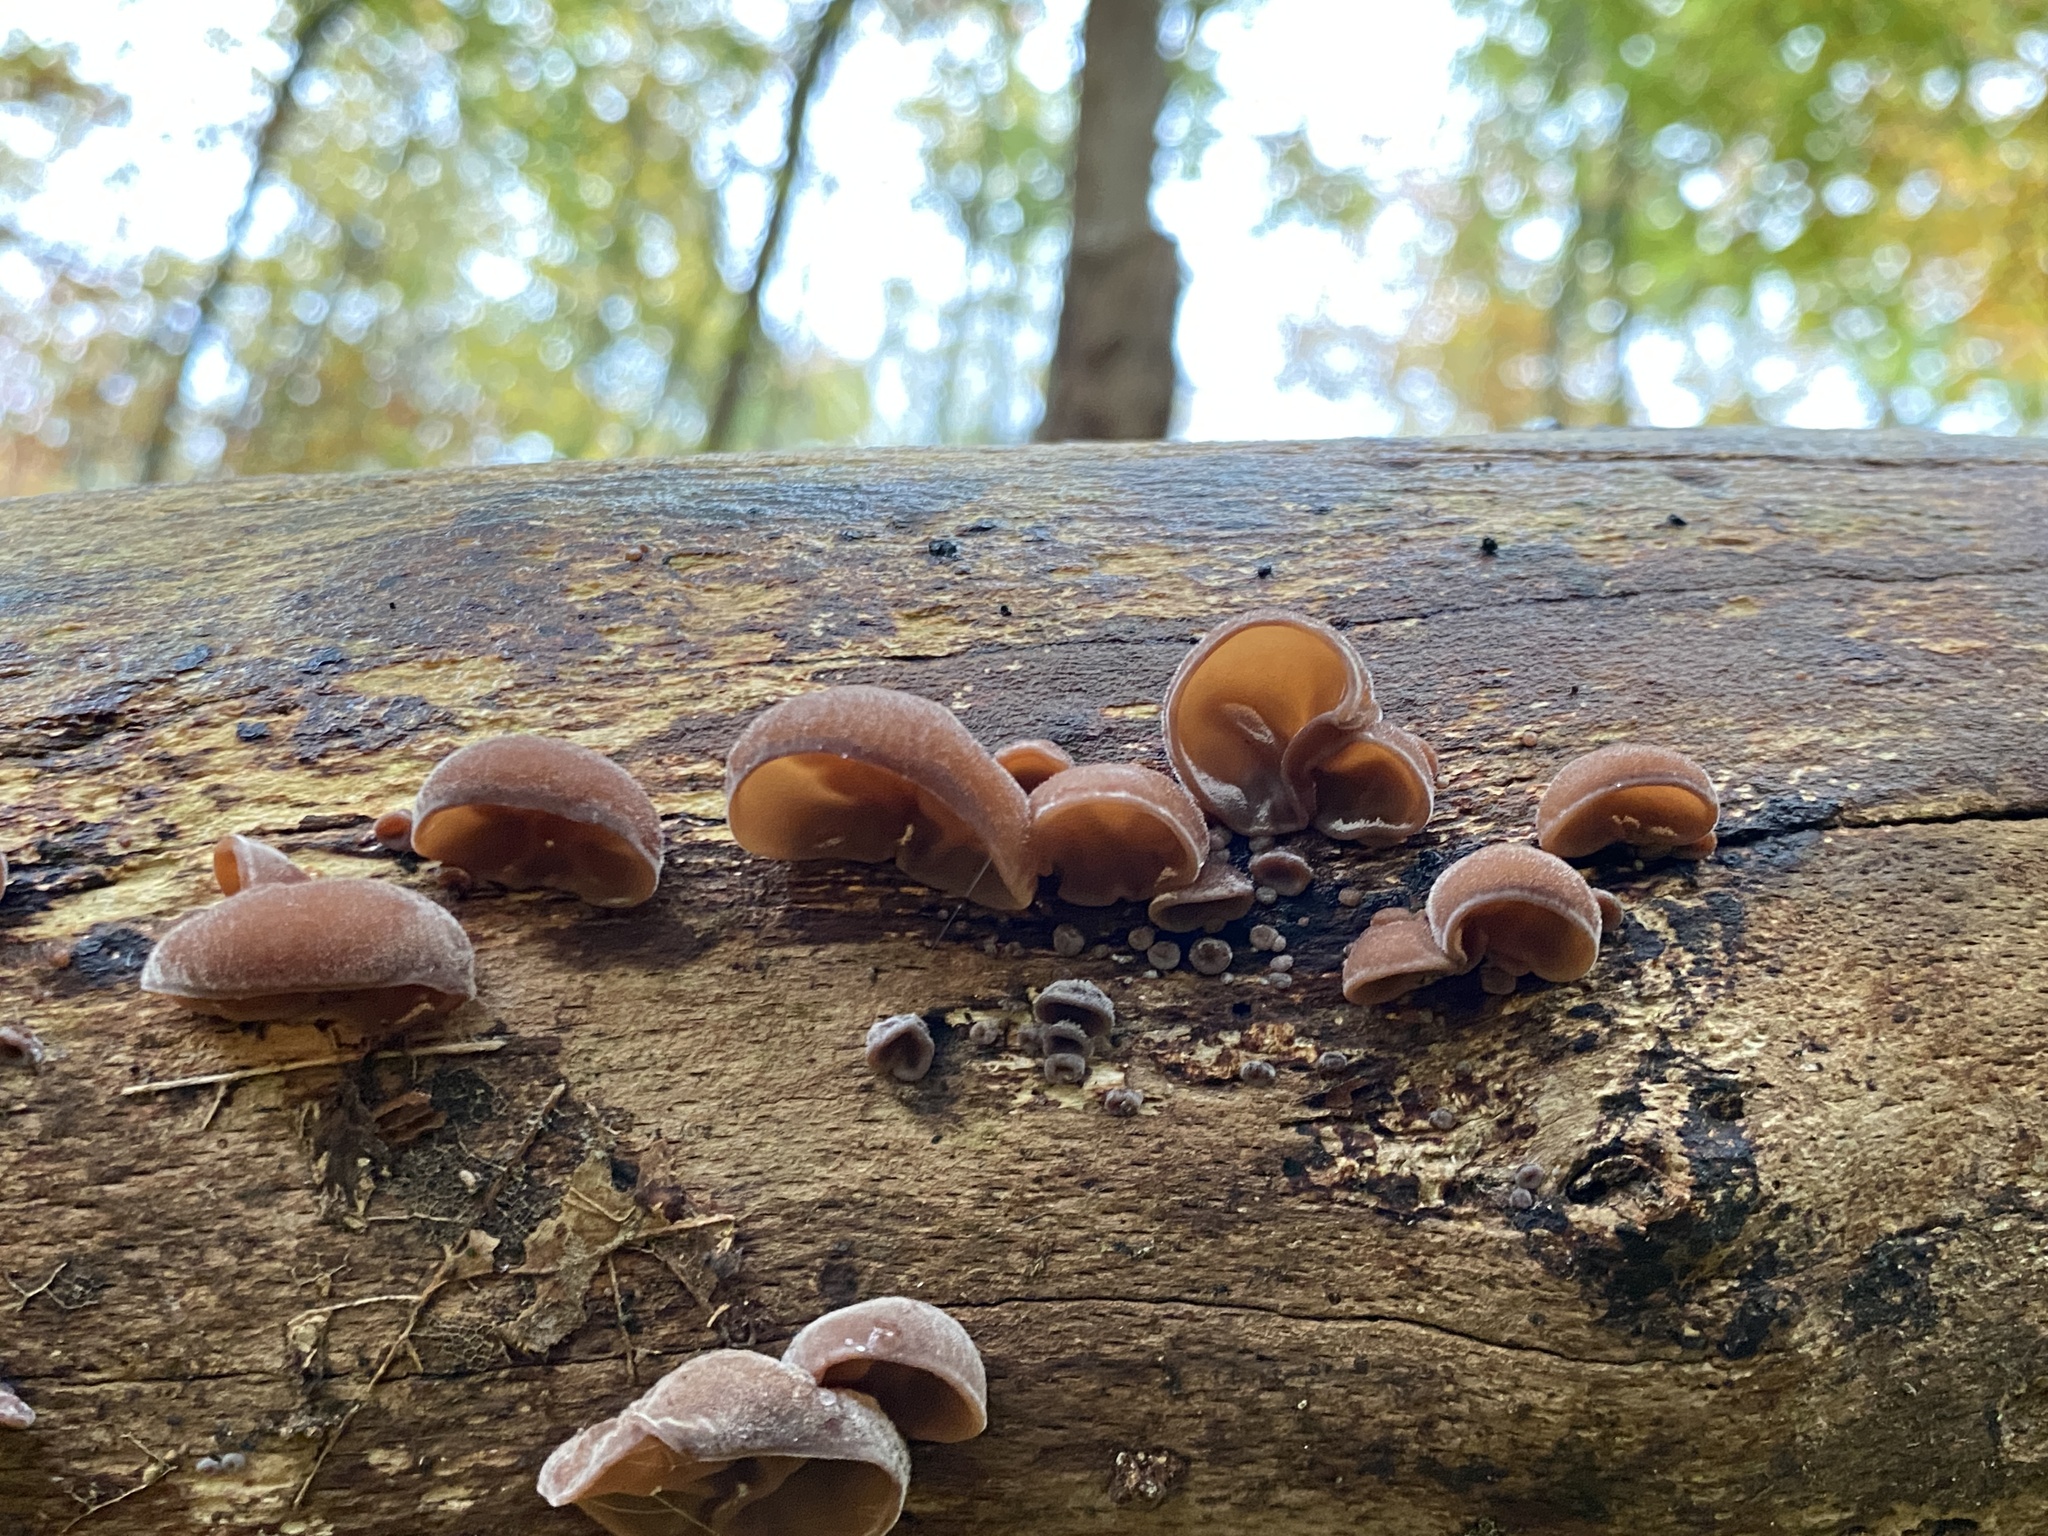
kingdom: Fungi
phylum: Basidiomycota
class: Agaricomycetes
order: Auriculariales
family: Auriculariaceae
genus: Auricularia
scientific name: Auricularia auricula-judae
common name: Jelly ear
